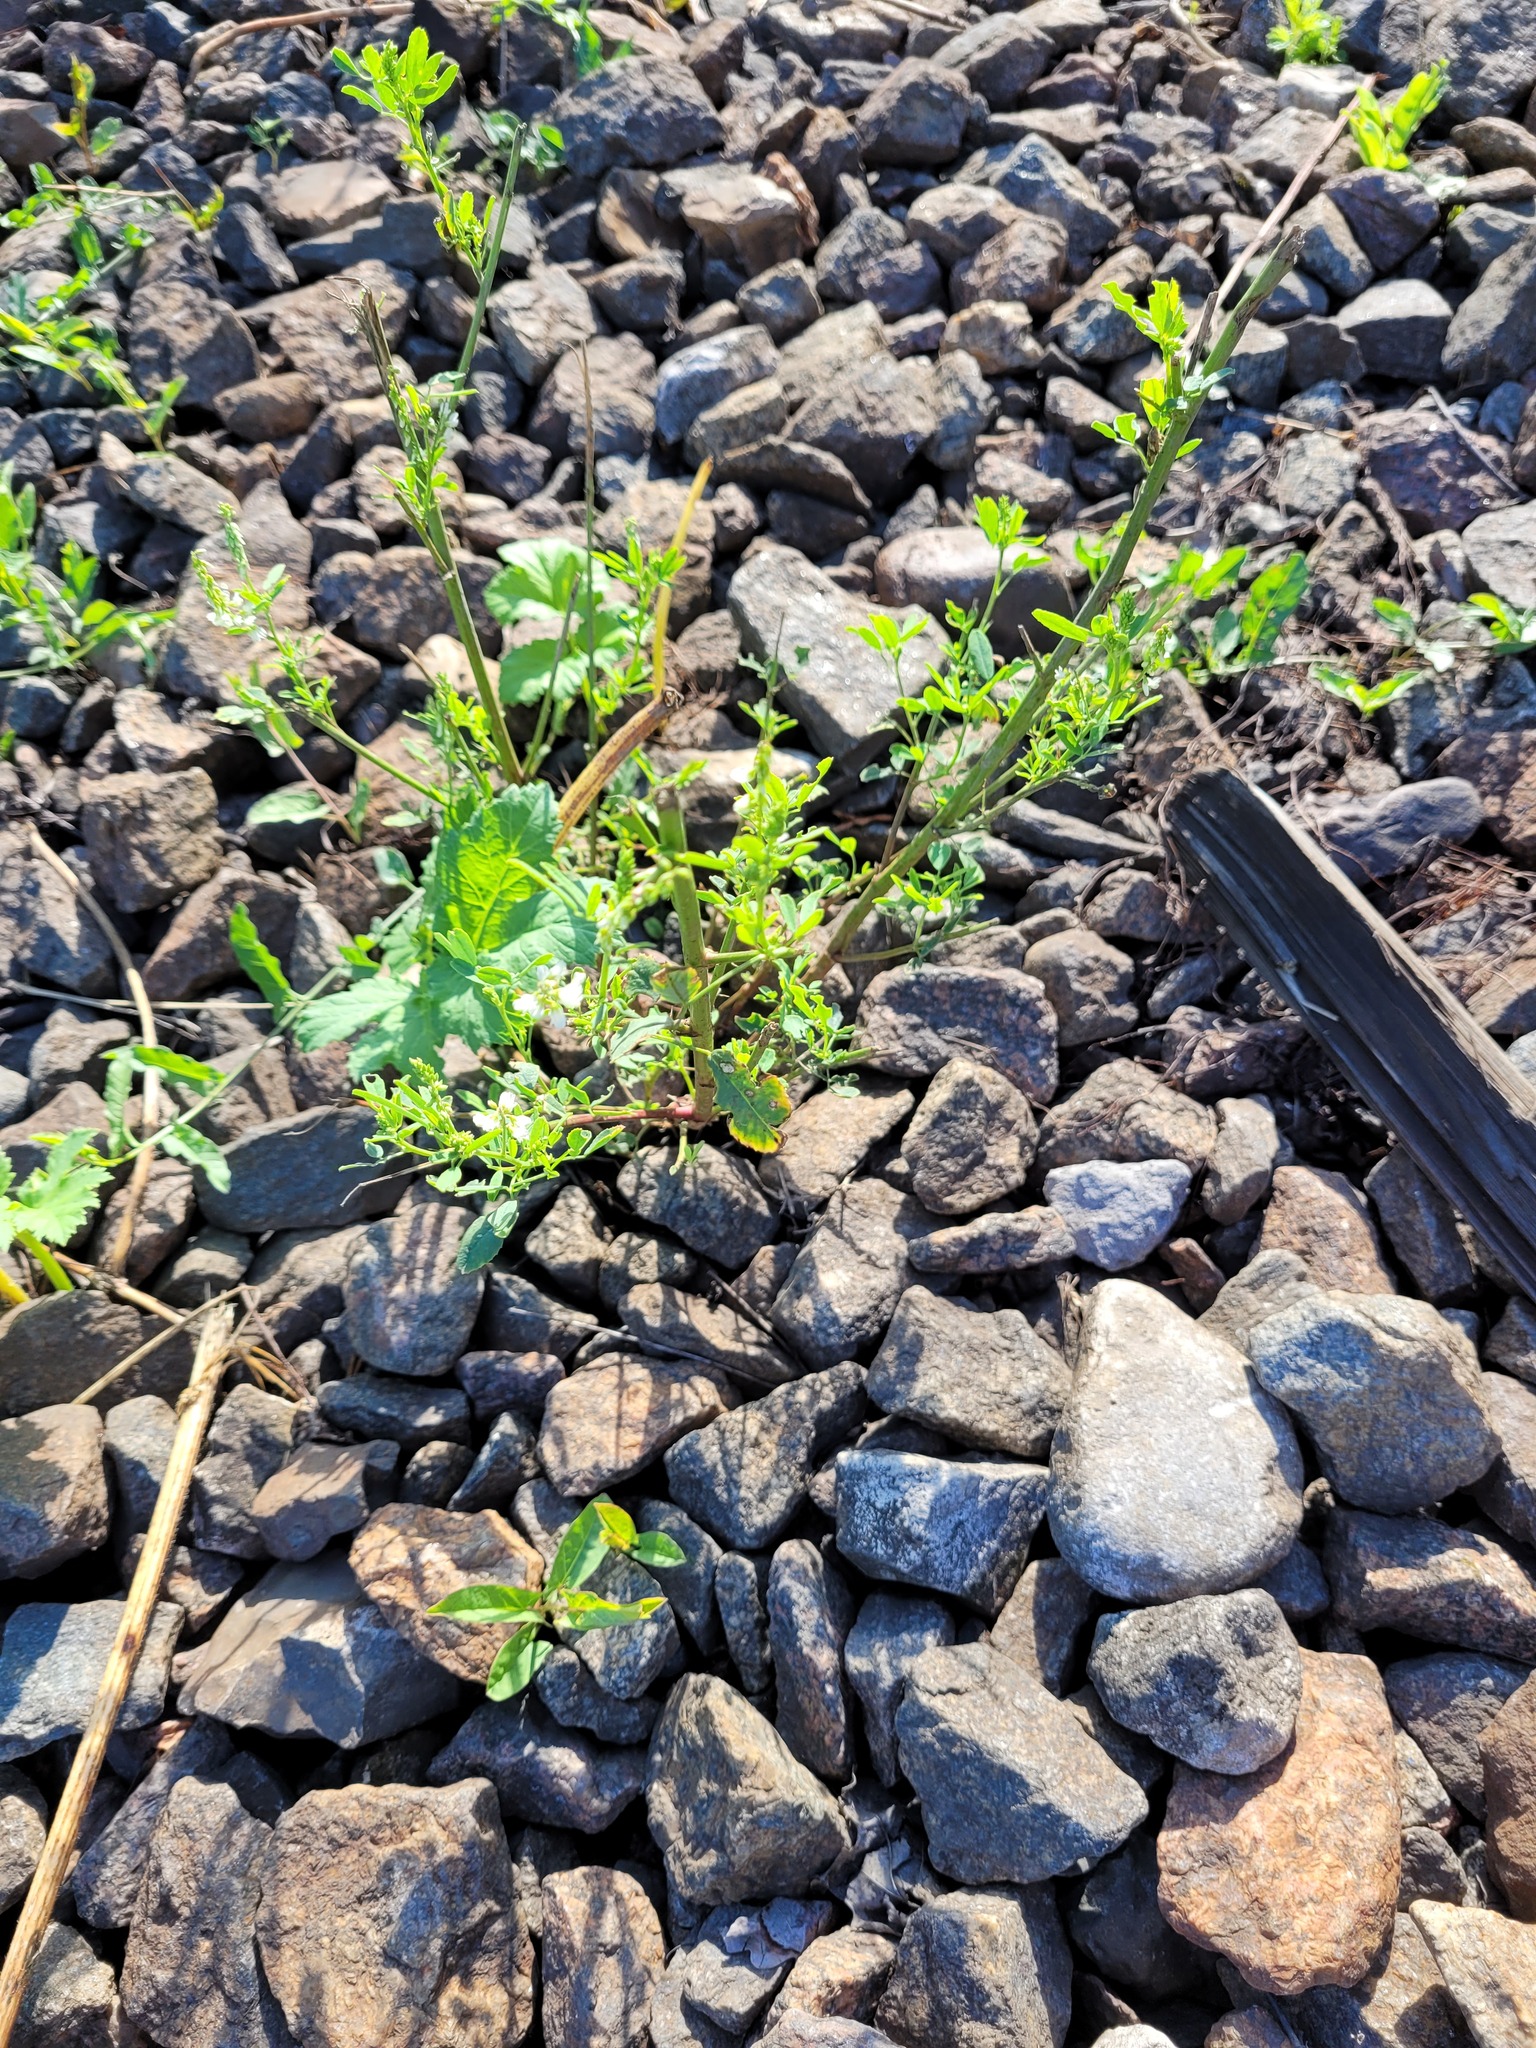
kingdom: Plantae
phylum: Tracheophyta
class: Magnoliopsida
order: Fabales
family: Fabaceae
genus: Melilotus
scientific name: Melilotus albus
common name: White melilot
